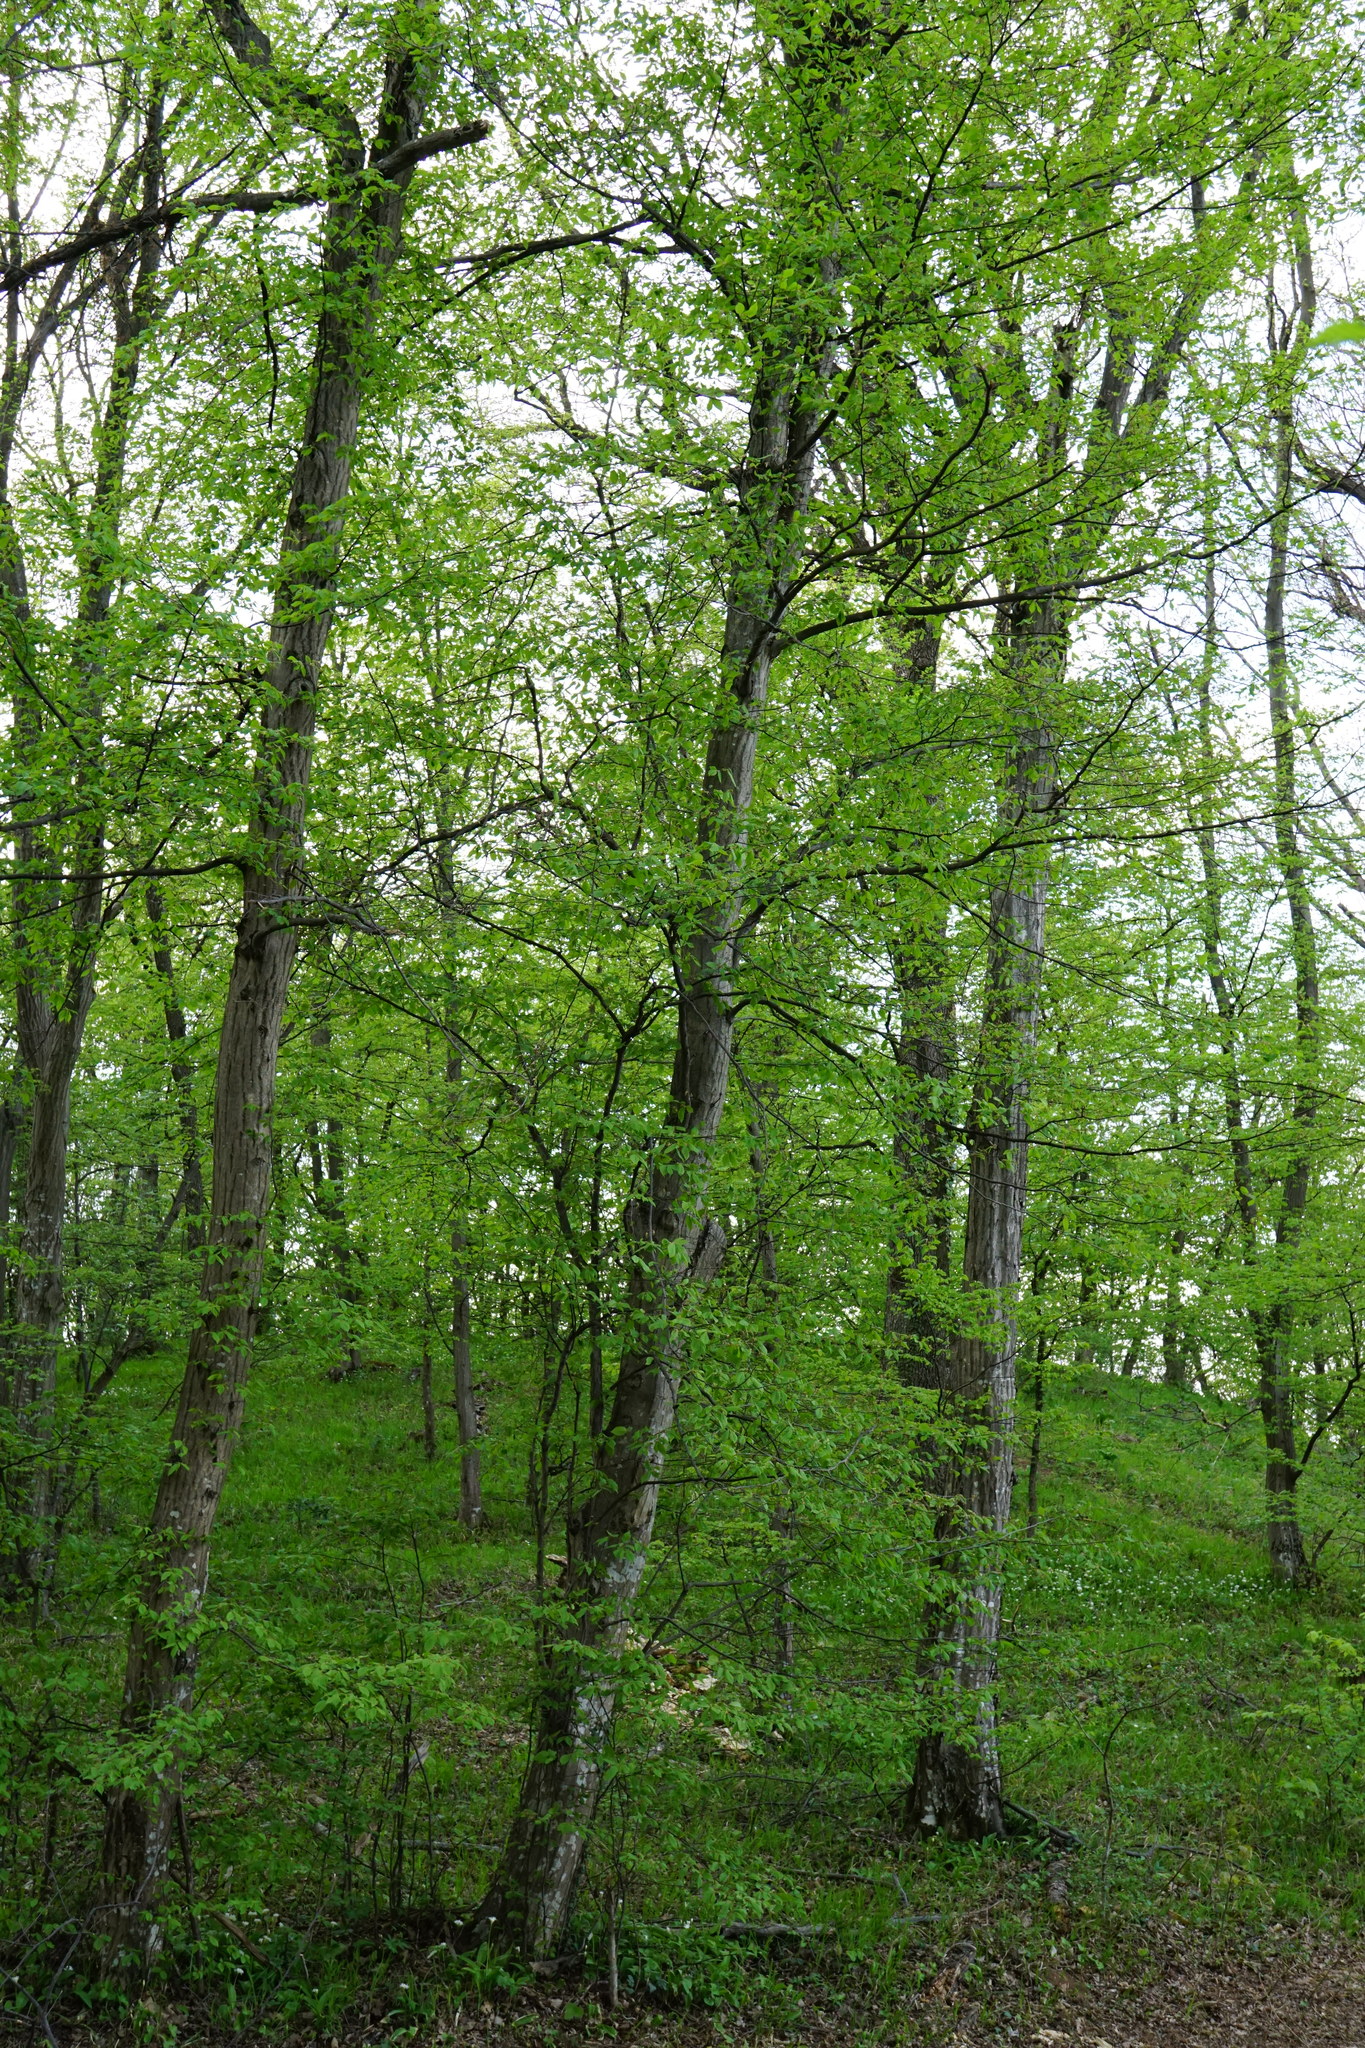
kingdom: Plantae
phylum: Tracheophyta
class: Magnoliopsida
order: Fagales
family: Betulaceae
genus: Carpinus
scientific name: Carpinus betulus
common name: Hornbeam
